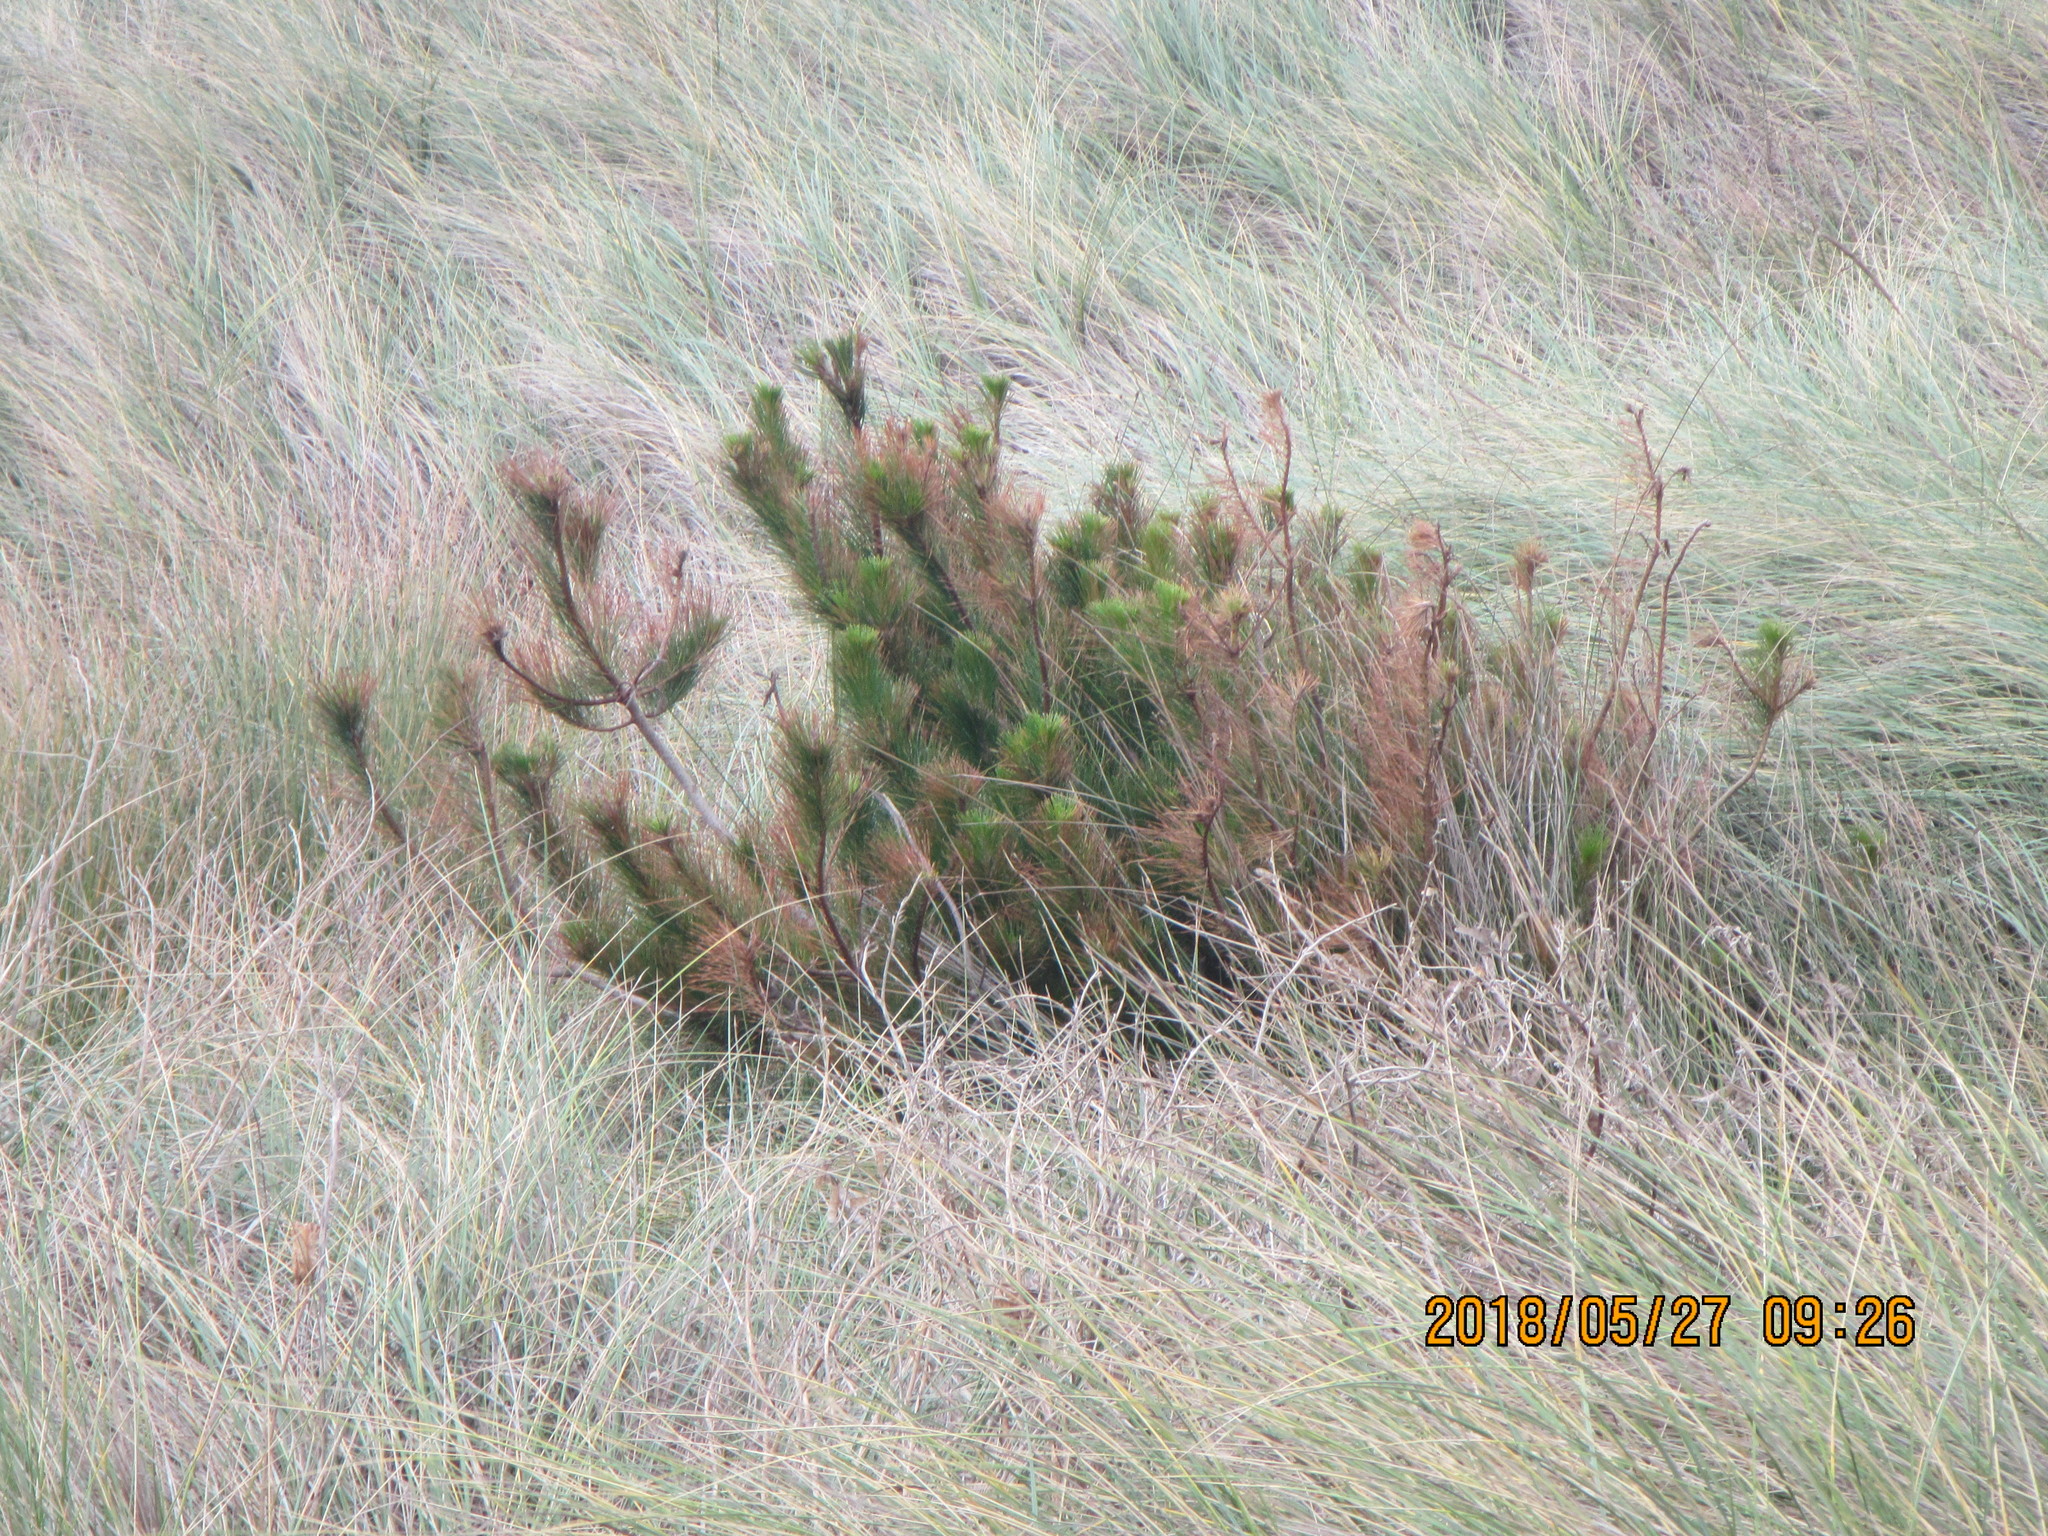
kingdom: Plantae
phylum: Tracheophyta
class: Pinopsida
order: Pinales
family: Pinaceae
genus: Pinus
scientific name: Pinus radiata
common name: Monterey pine
